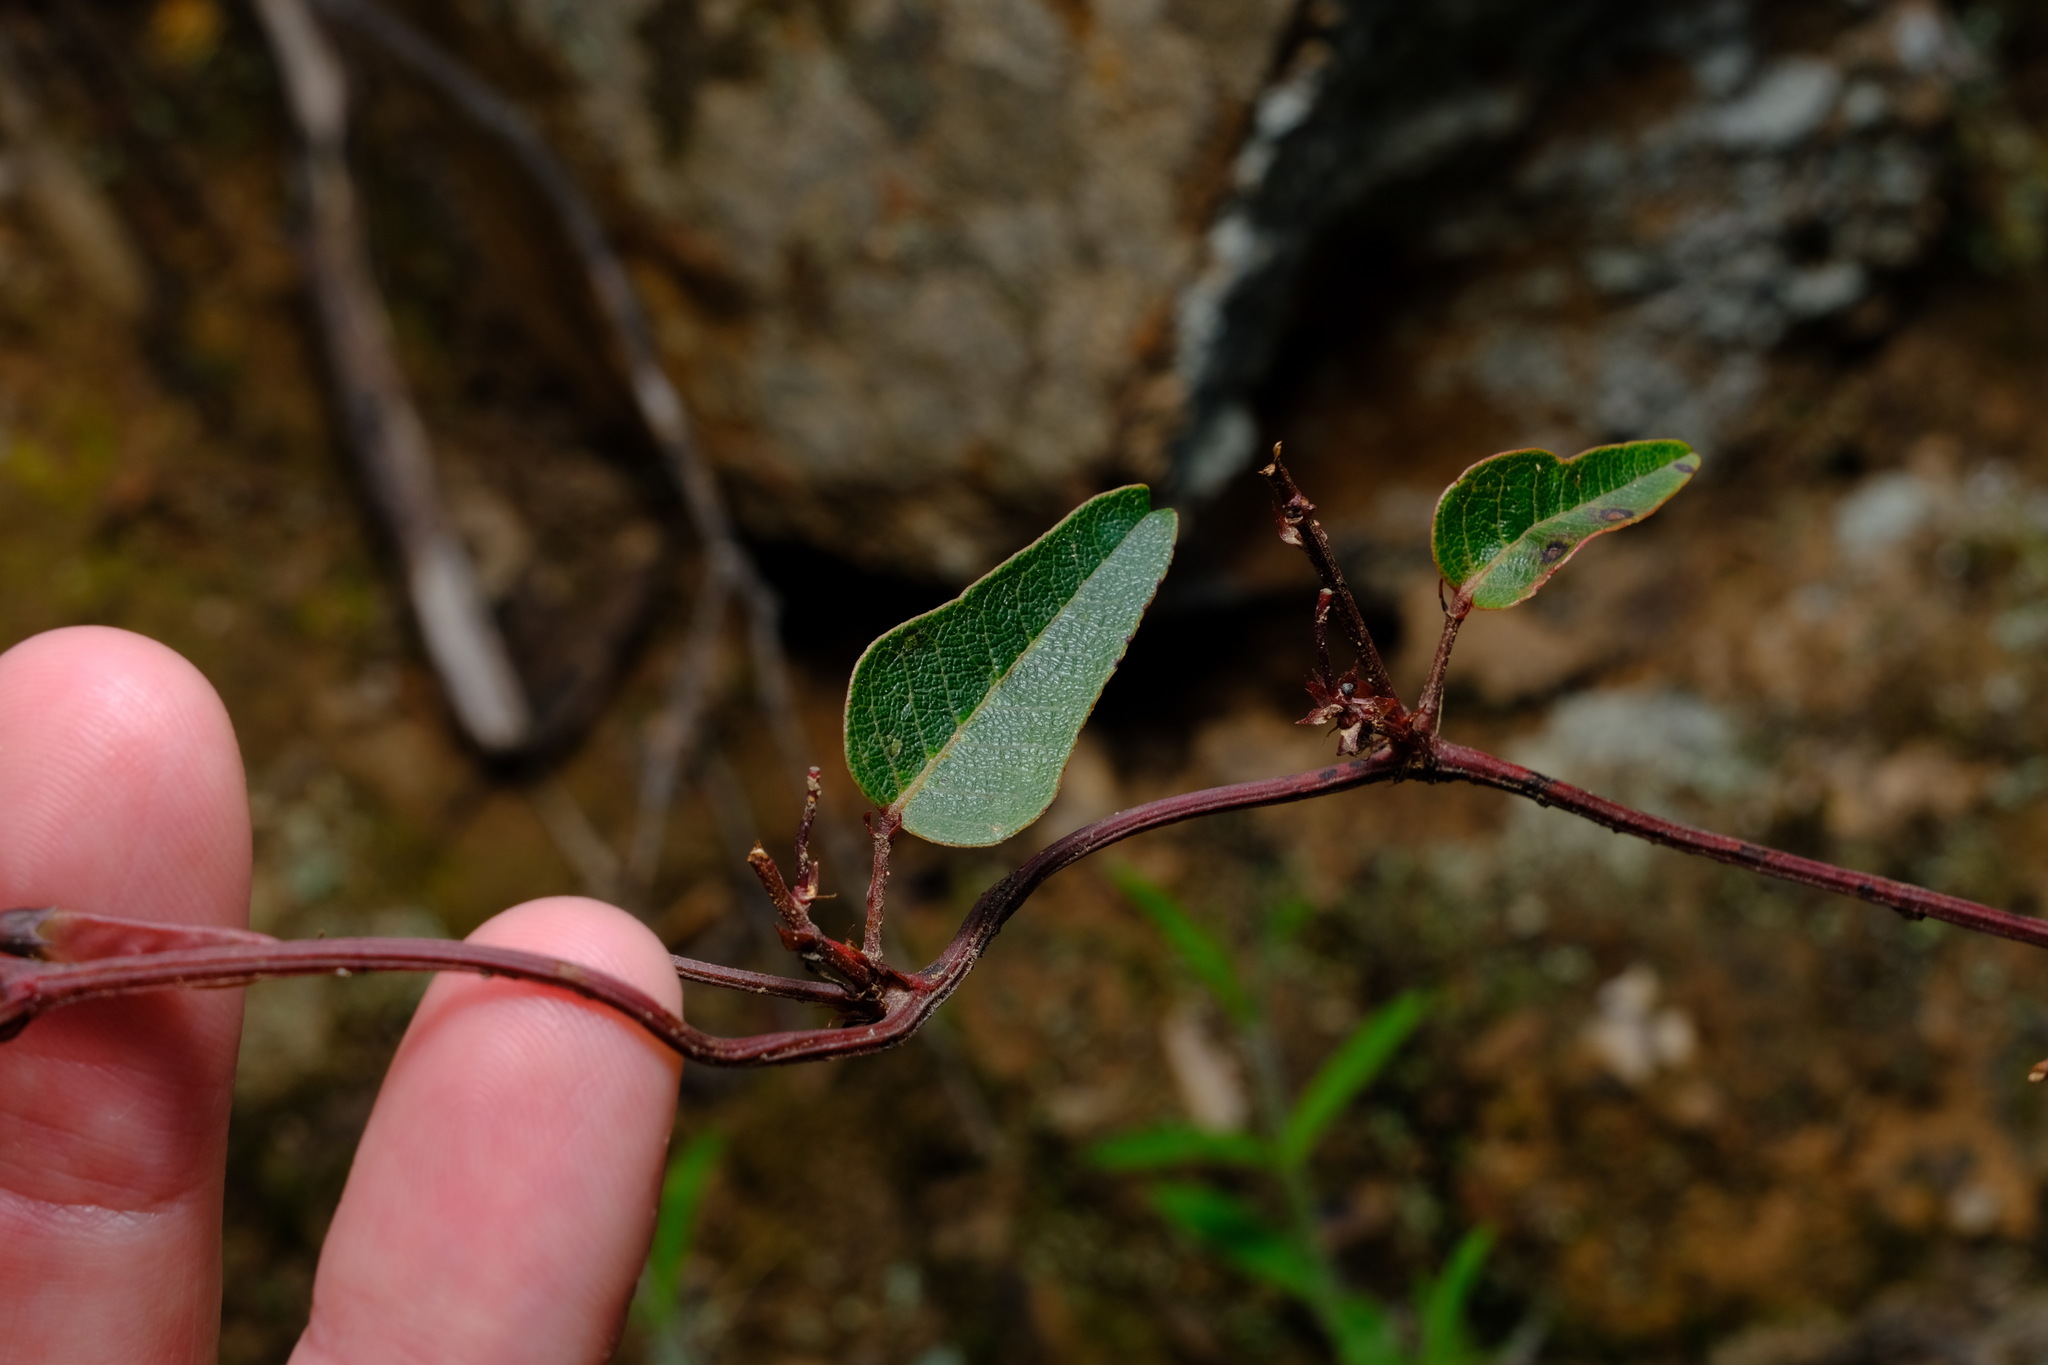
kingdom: Plantae
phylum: Tracheophyta
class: Magnoliopsida
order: Fabales
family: Fabaceae
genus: Hardenbergia
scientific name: Hardenbergia violacea
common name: Coral-pea
